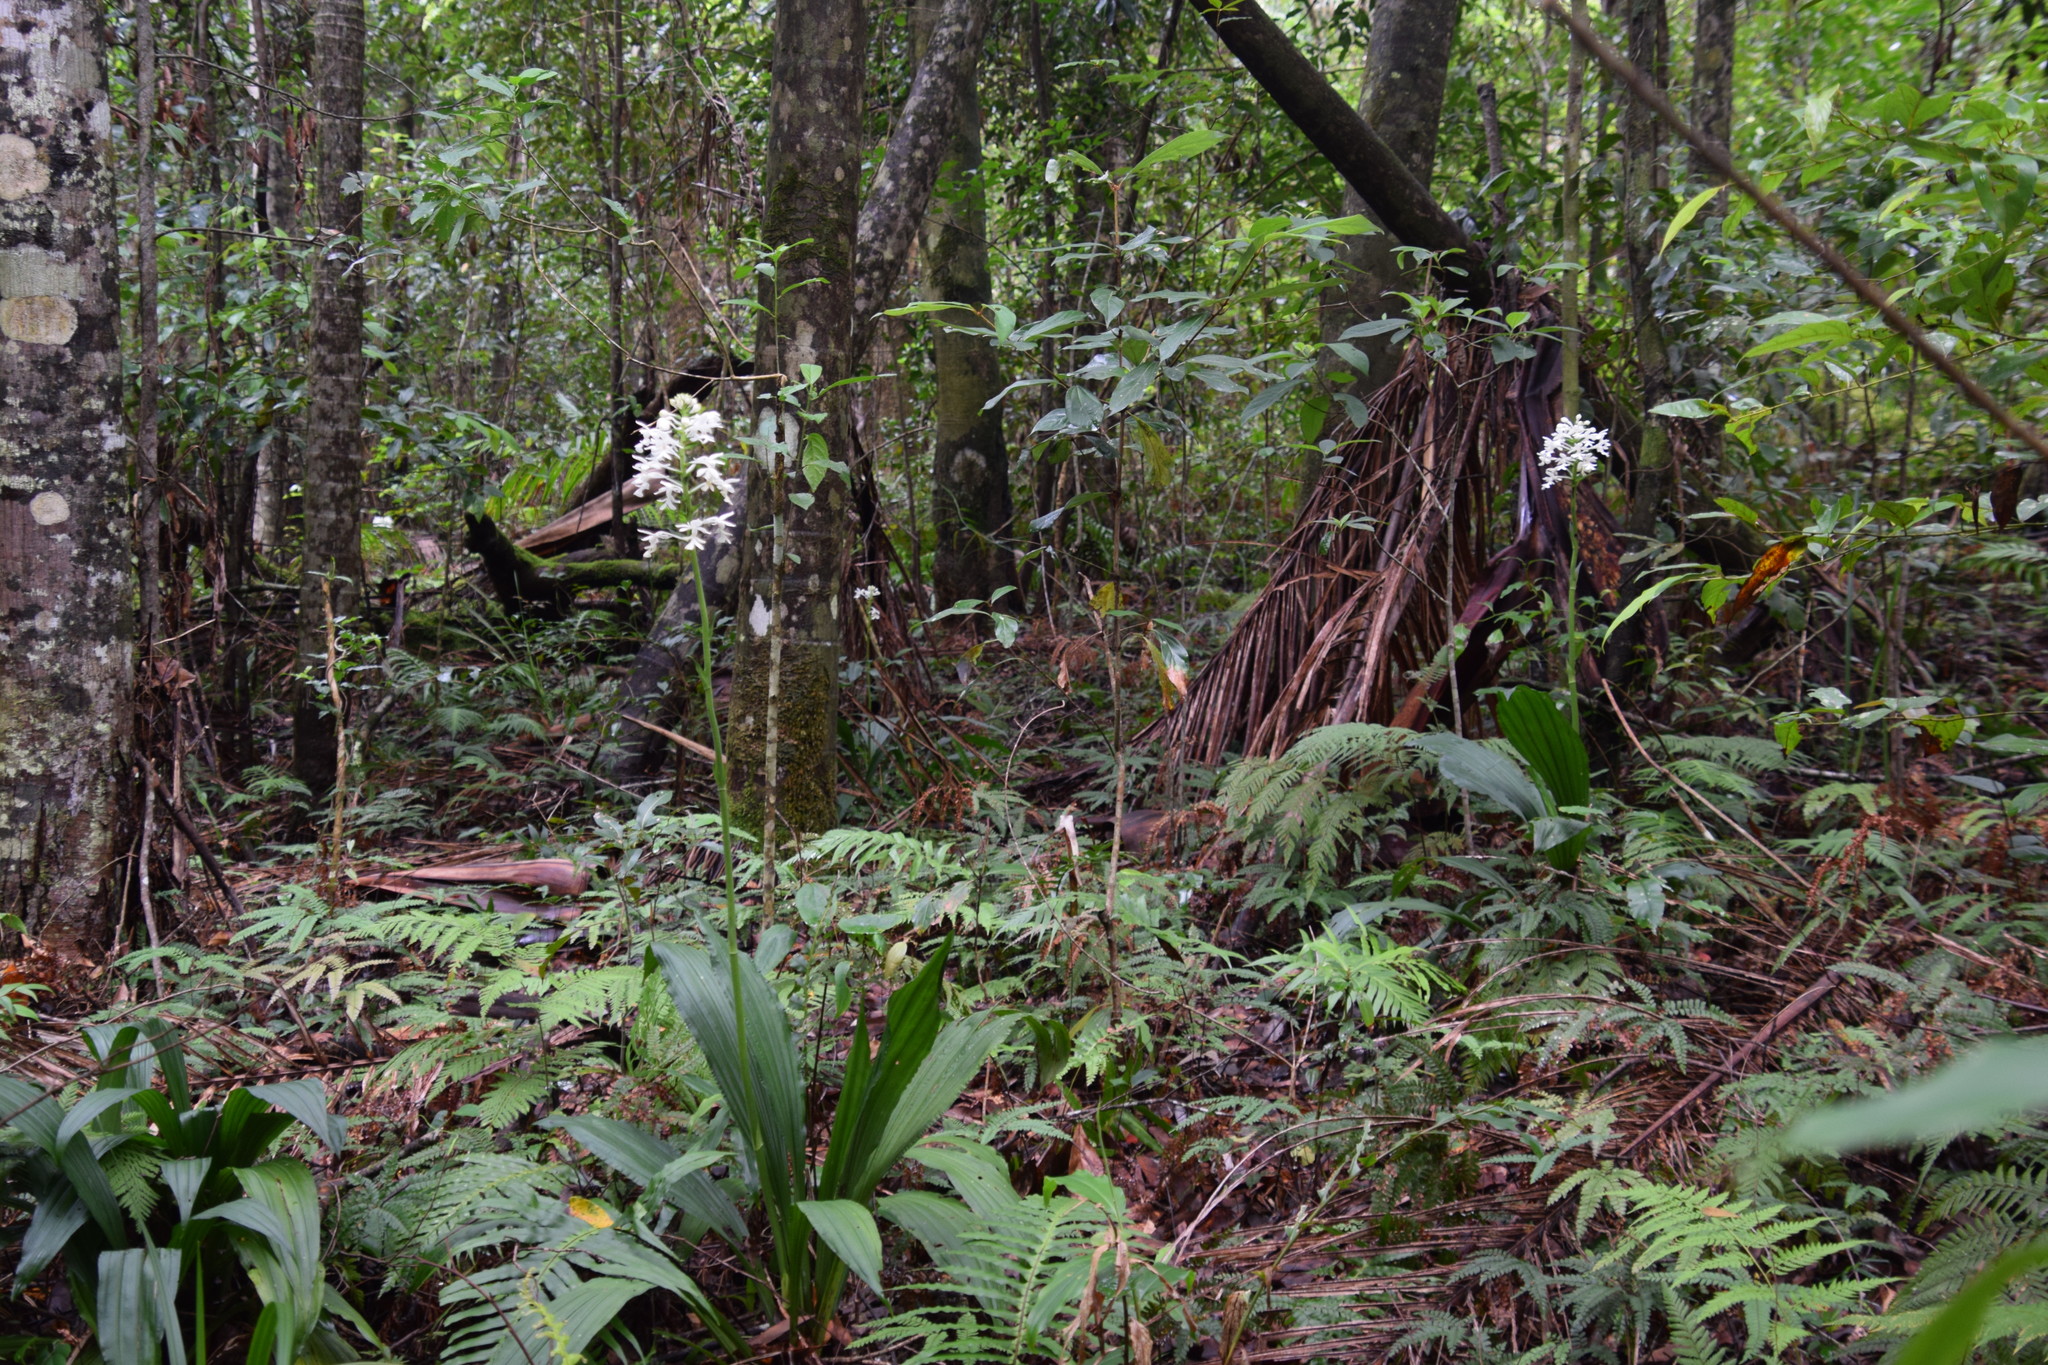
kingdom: Plantae
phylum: Tracheophyta
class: Liliopsida
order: Asparagales
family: Orchidaceae
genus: Calanthe
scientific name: Calanthe triplicata
